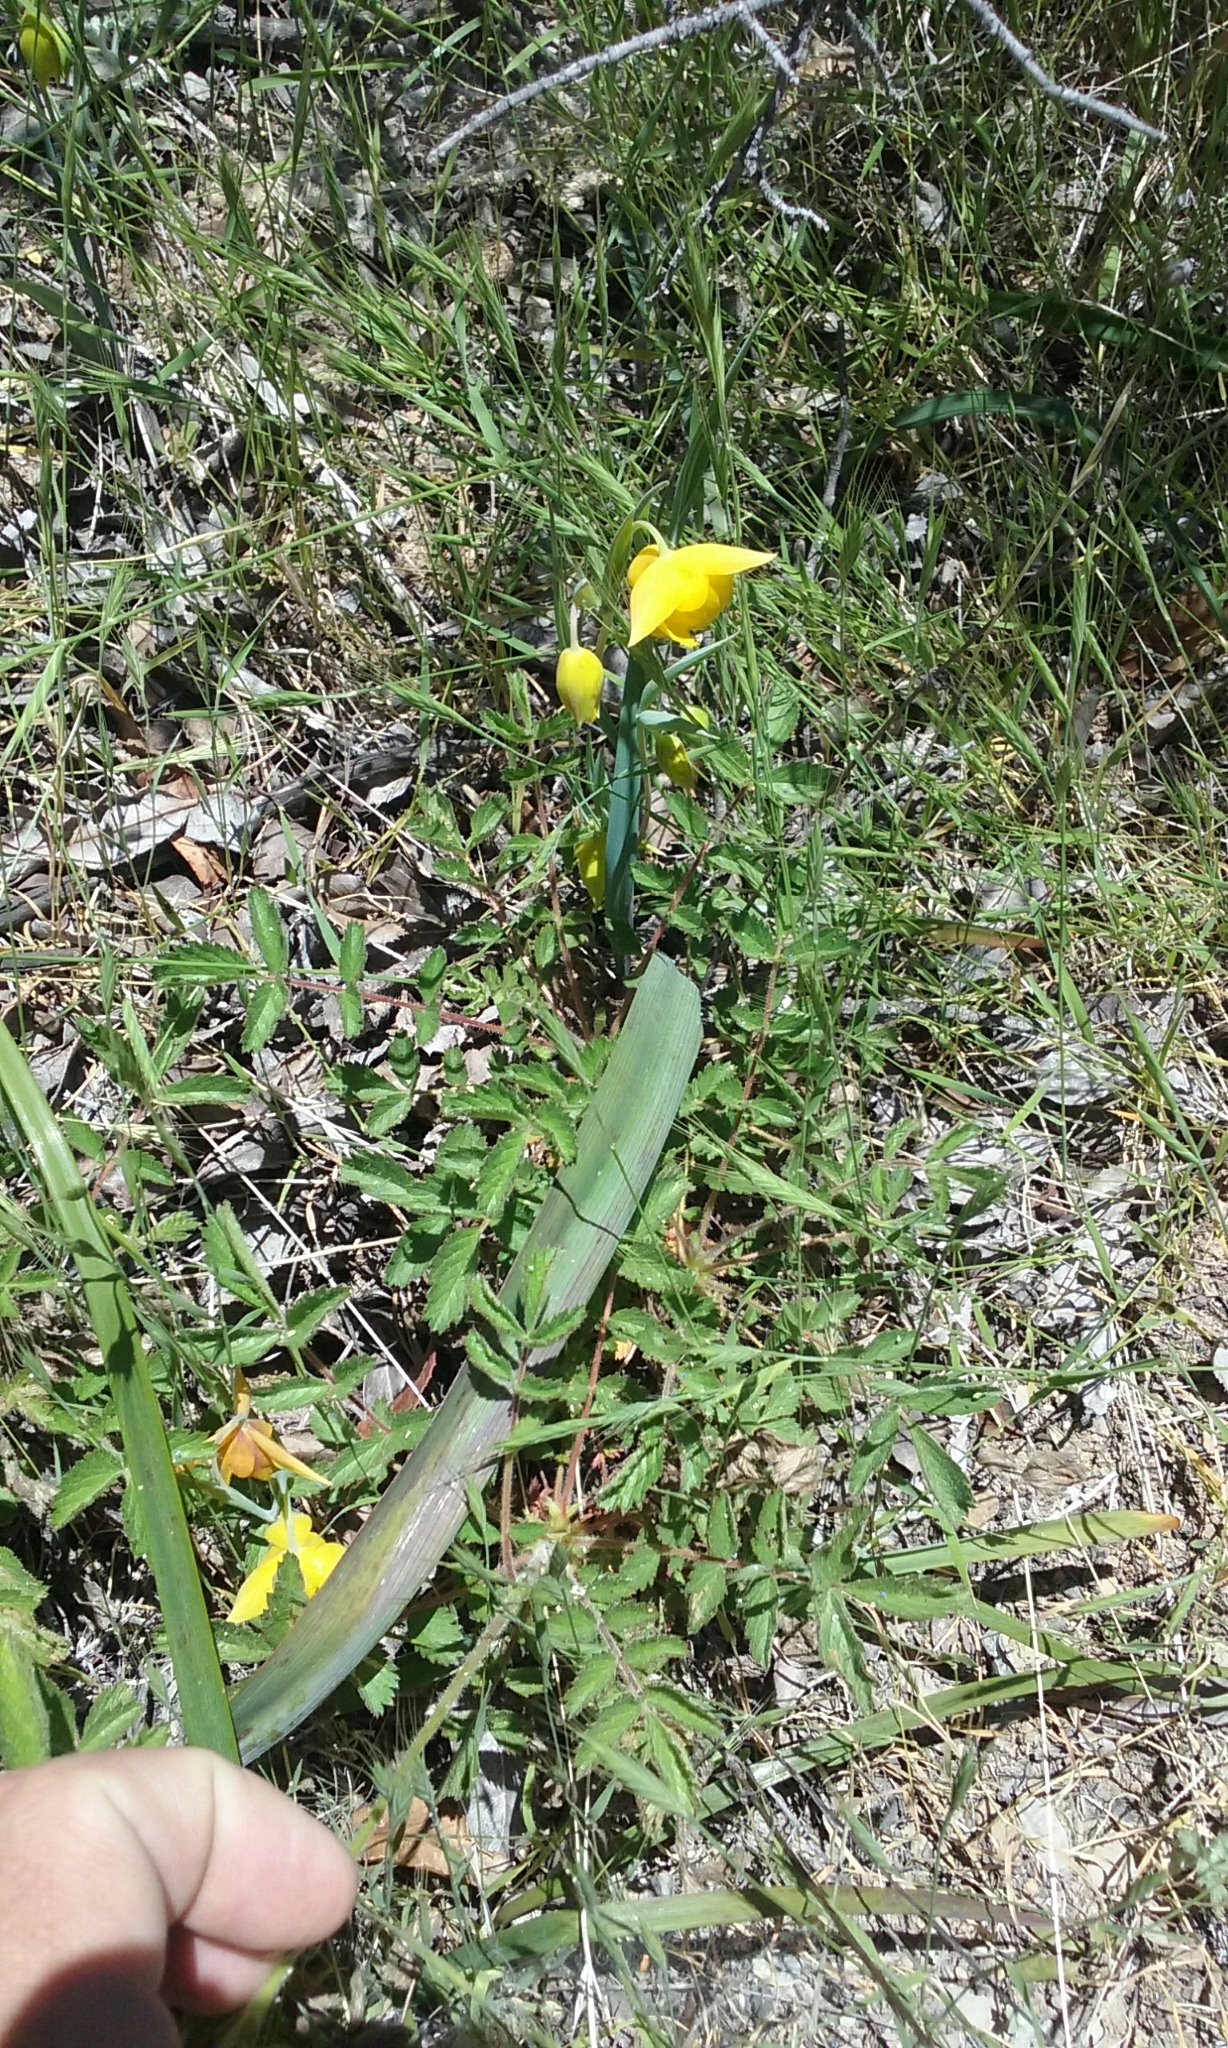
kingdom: Plantae
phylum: Tracheophyta
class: Liliopsida
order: Liliales
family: Liliaceae
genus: Calochortus
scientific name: Calochortus amabilis
